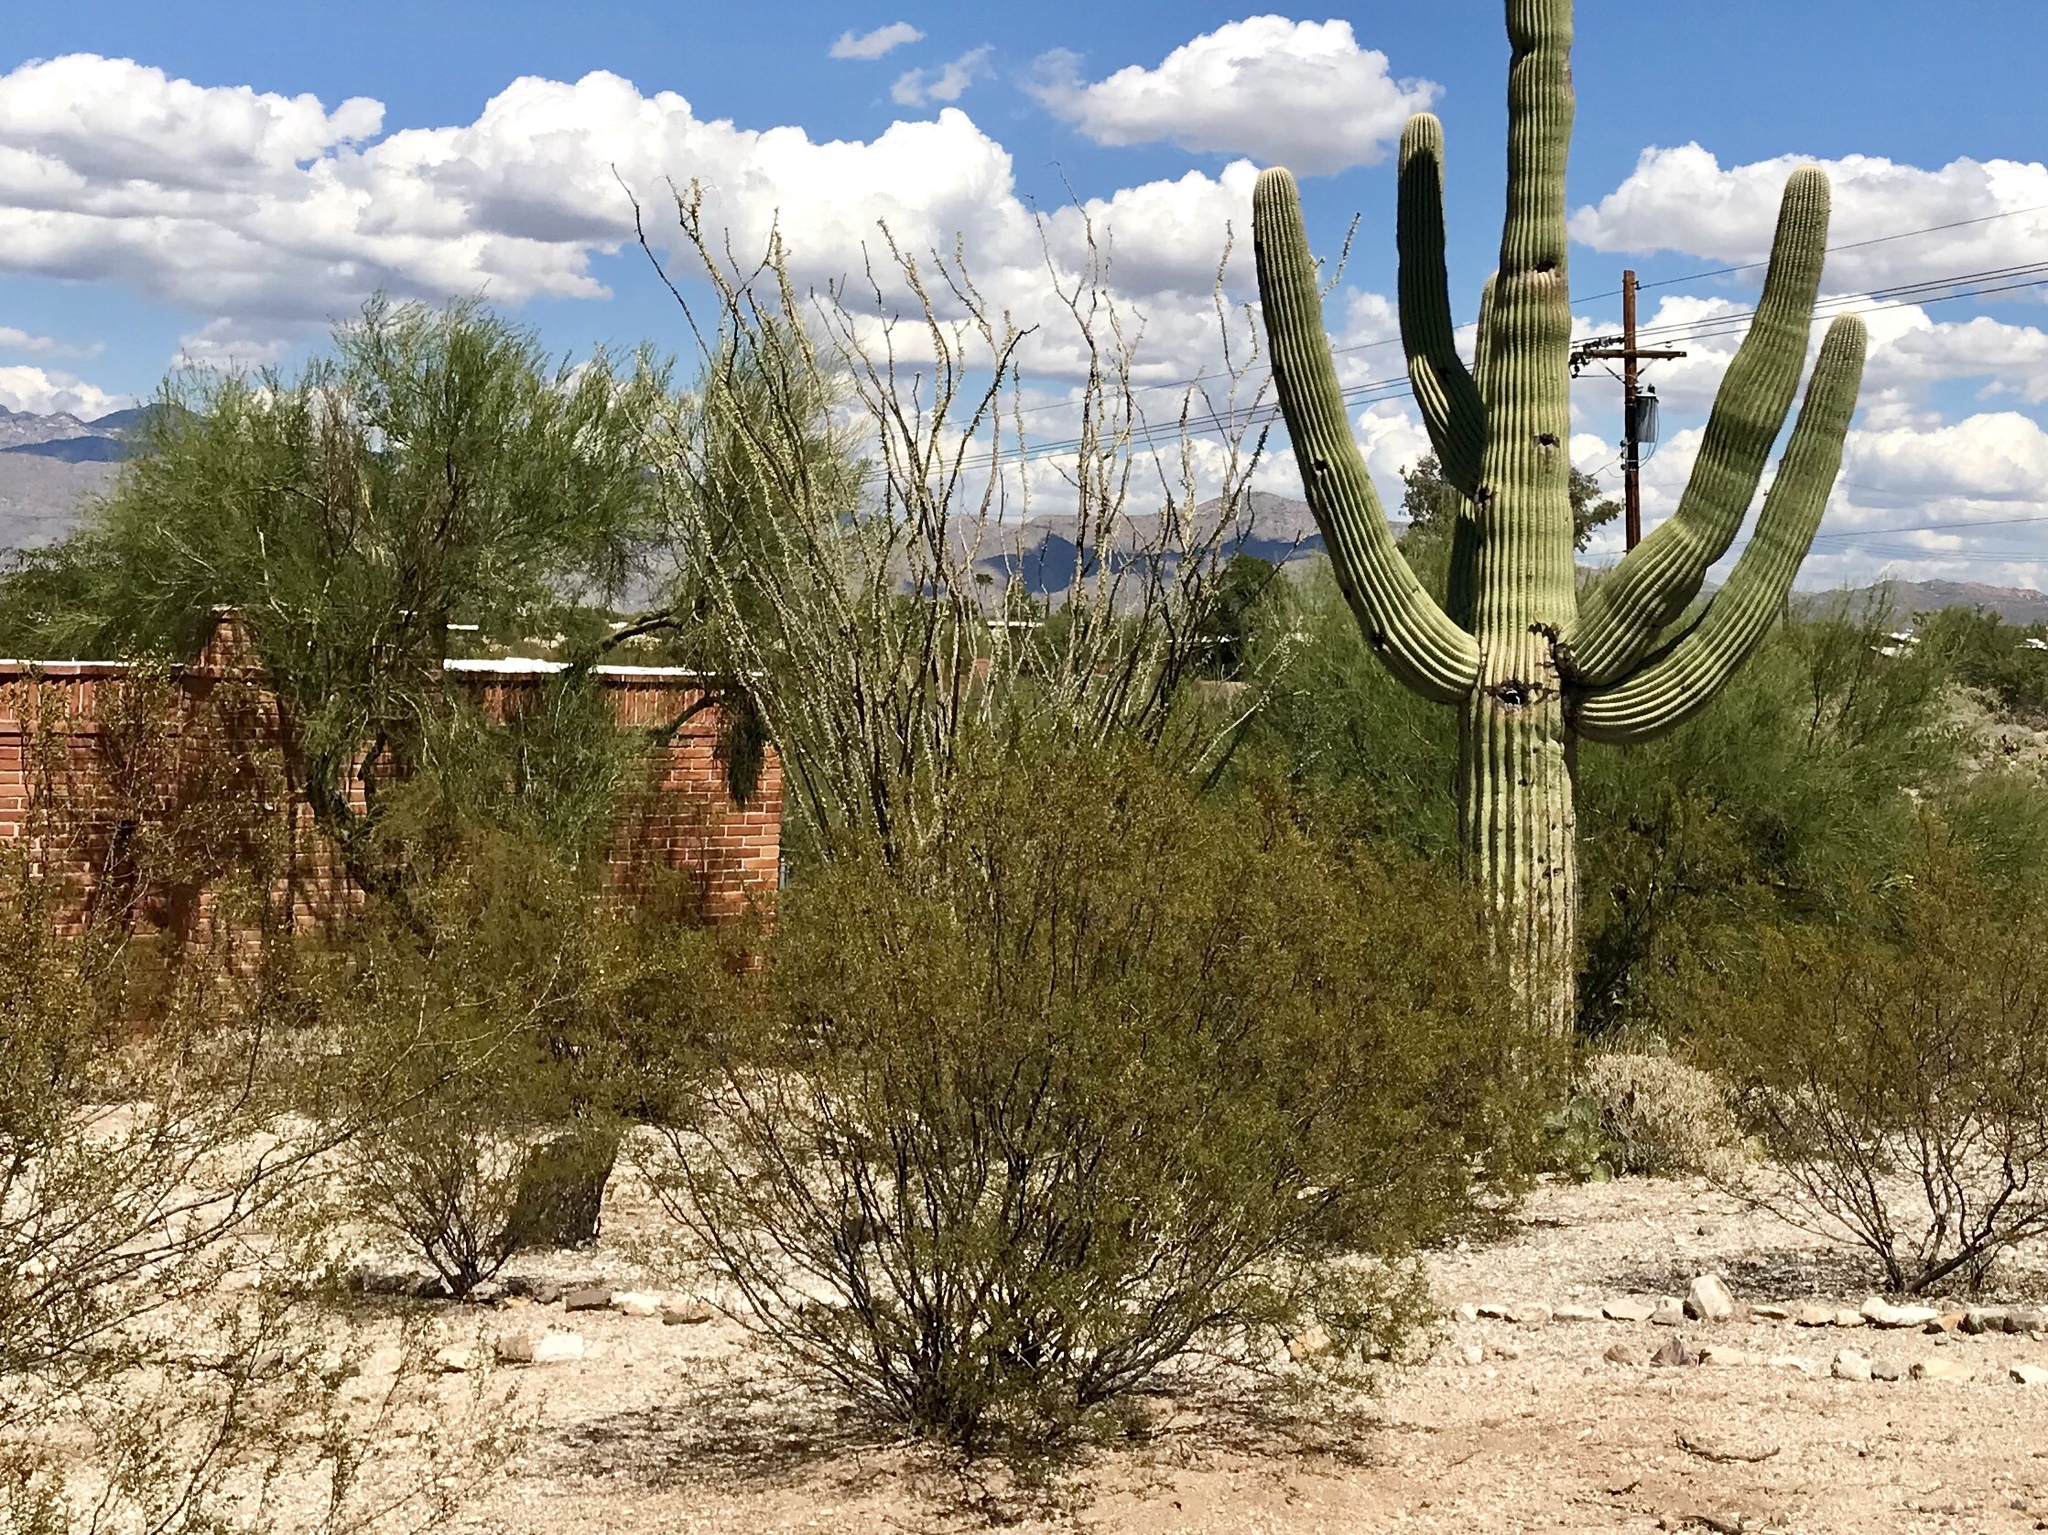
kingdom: Plantae
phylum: Tracheophyta
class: Magnoliopsida
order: Zygophyllales
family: Zygophyllaceae
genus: Larrea
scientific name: Larrea tridentata
